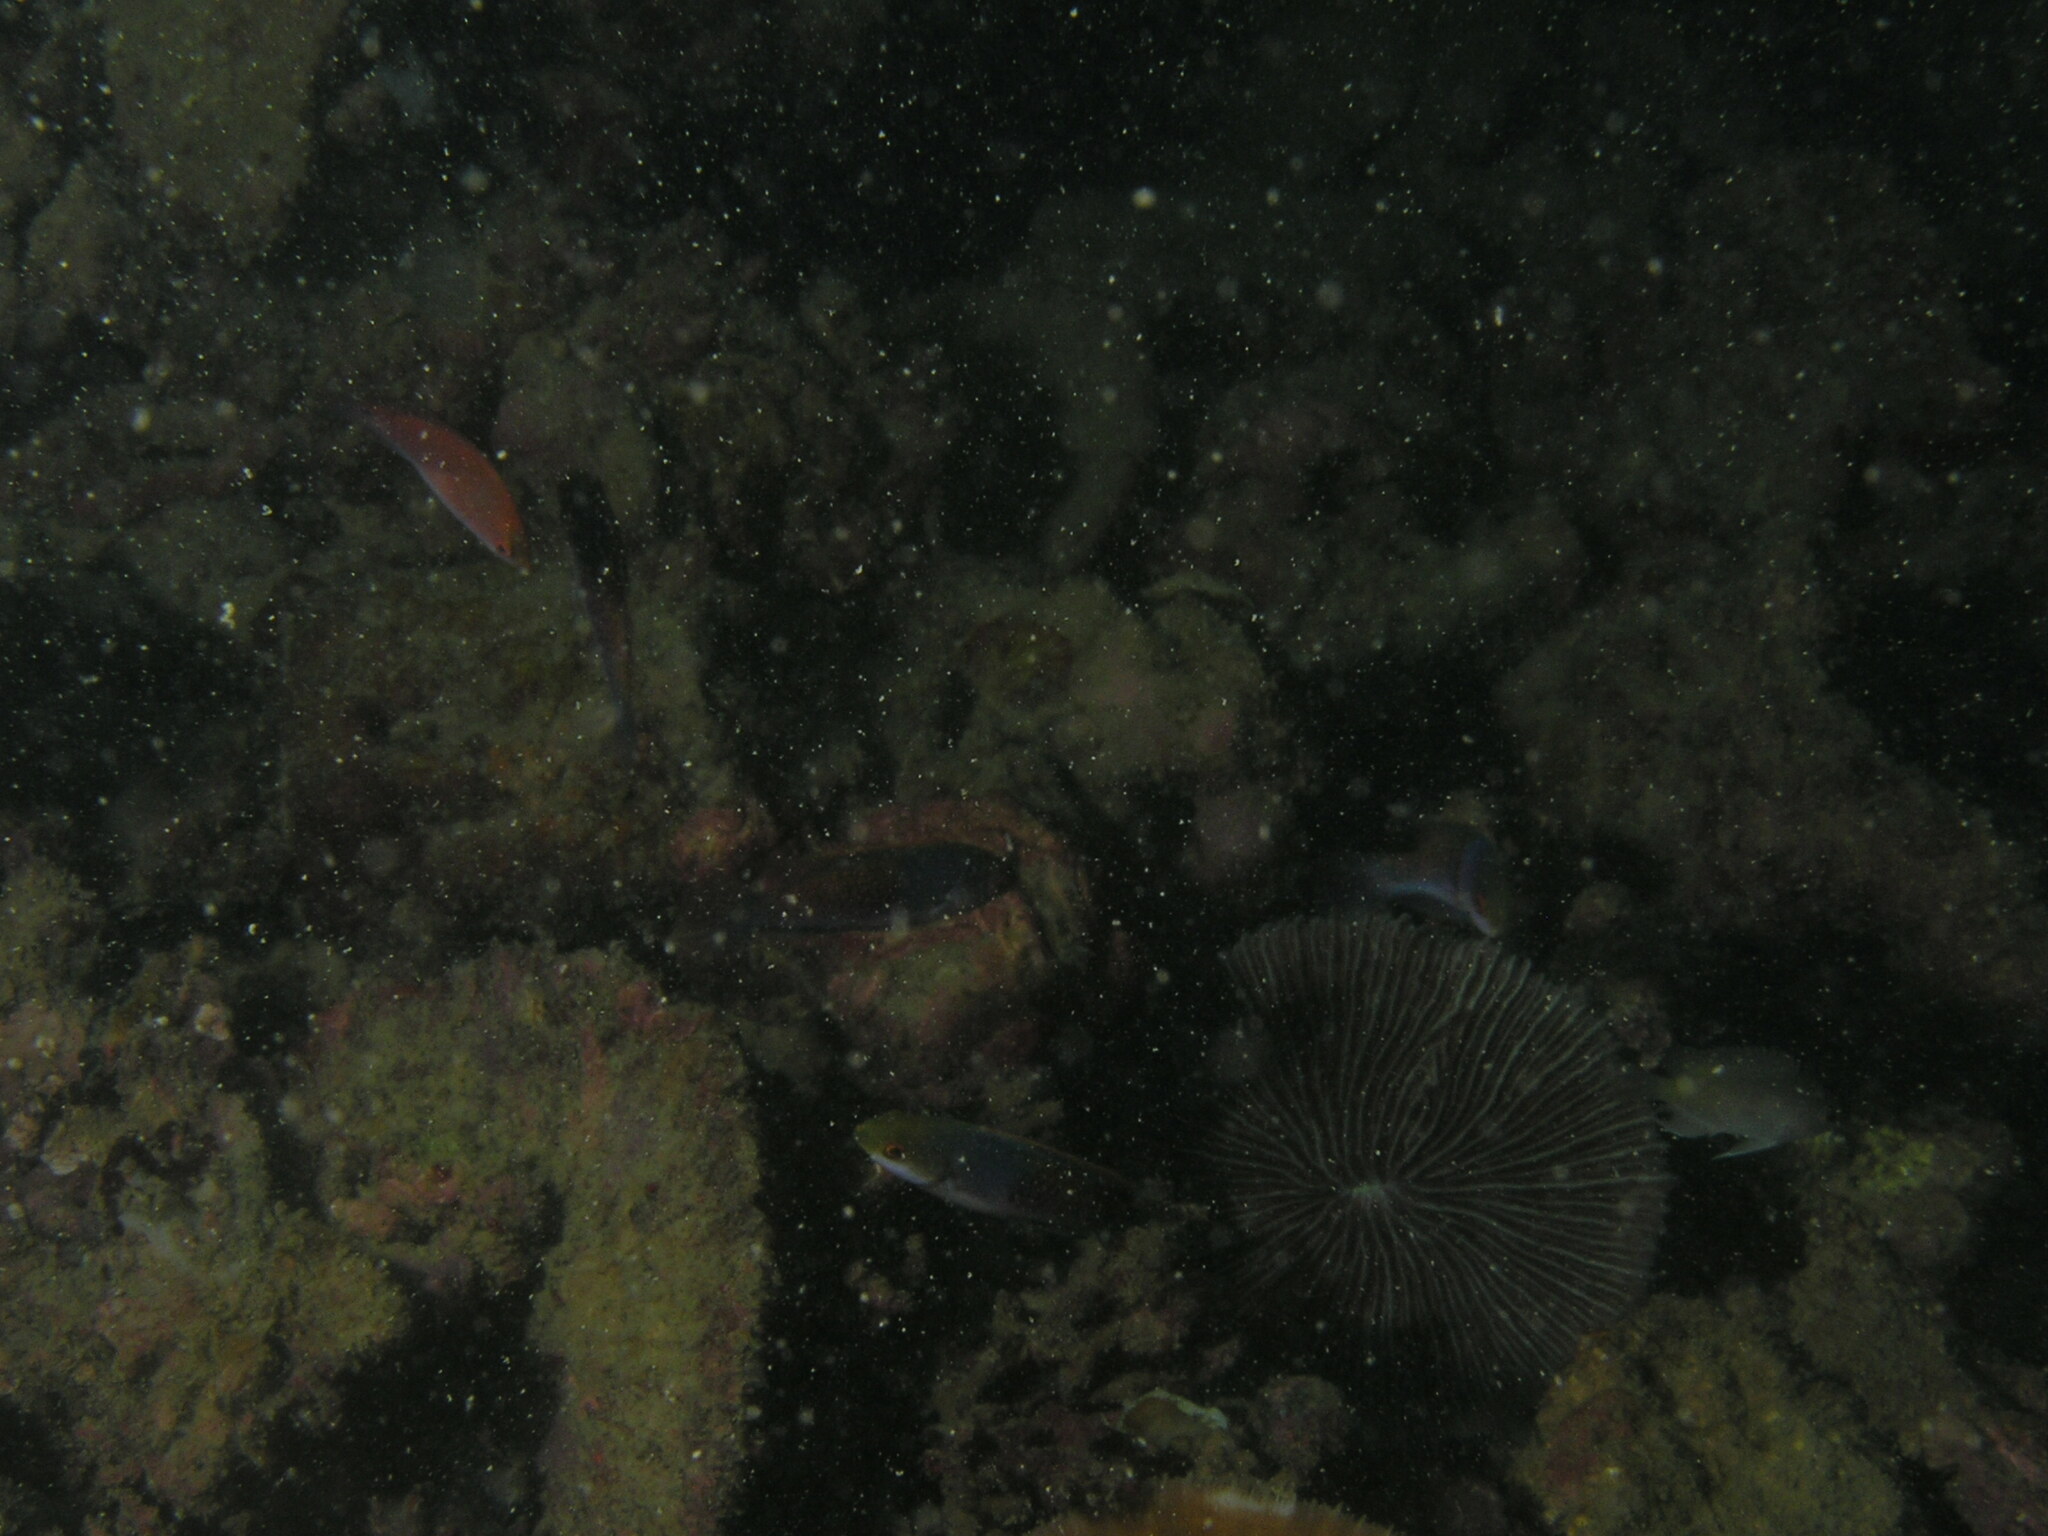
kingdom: Animalia
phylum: Chordata
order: Perciformes
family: Labridae
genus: Cirrhilabrus
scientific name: Cirrhilabrus cyanopleura
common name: Coralline wrasse
